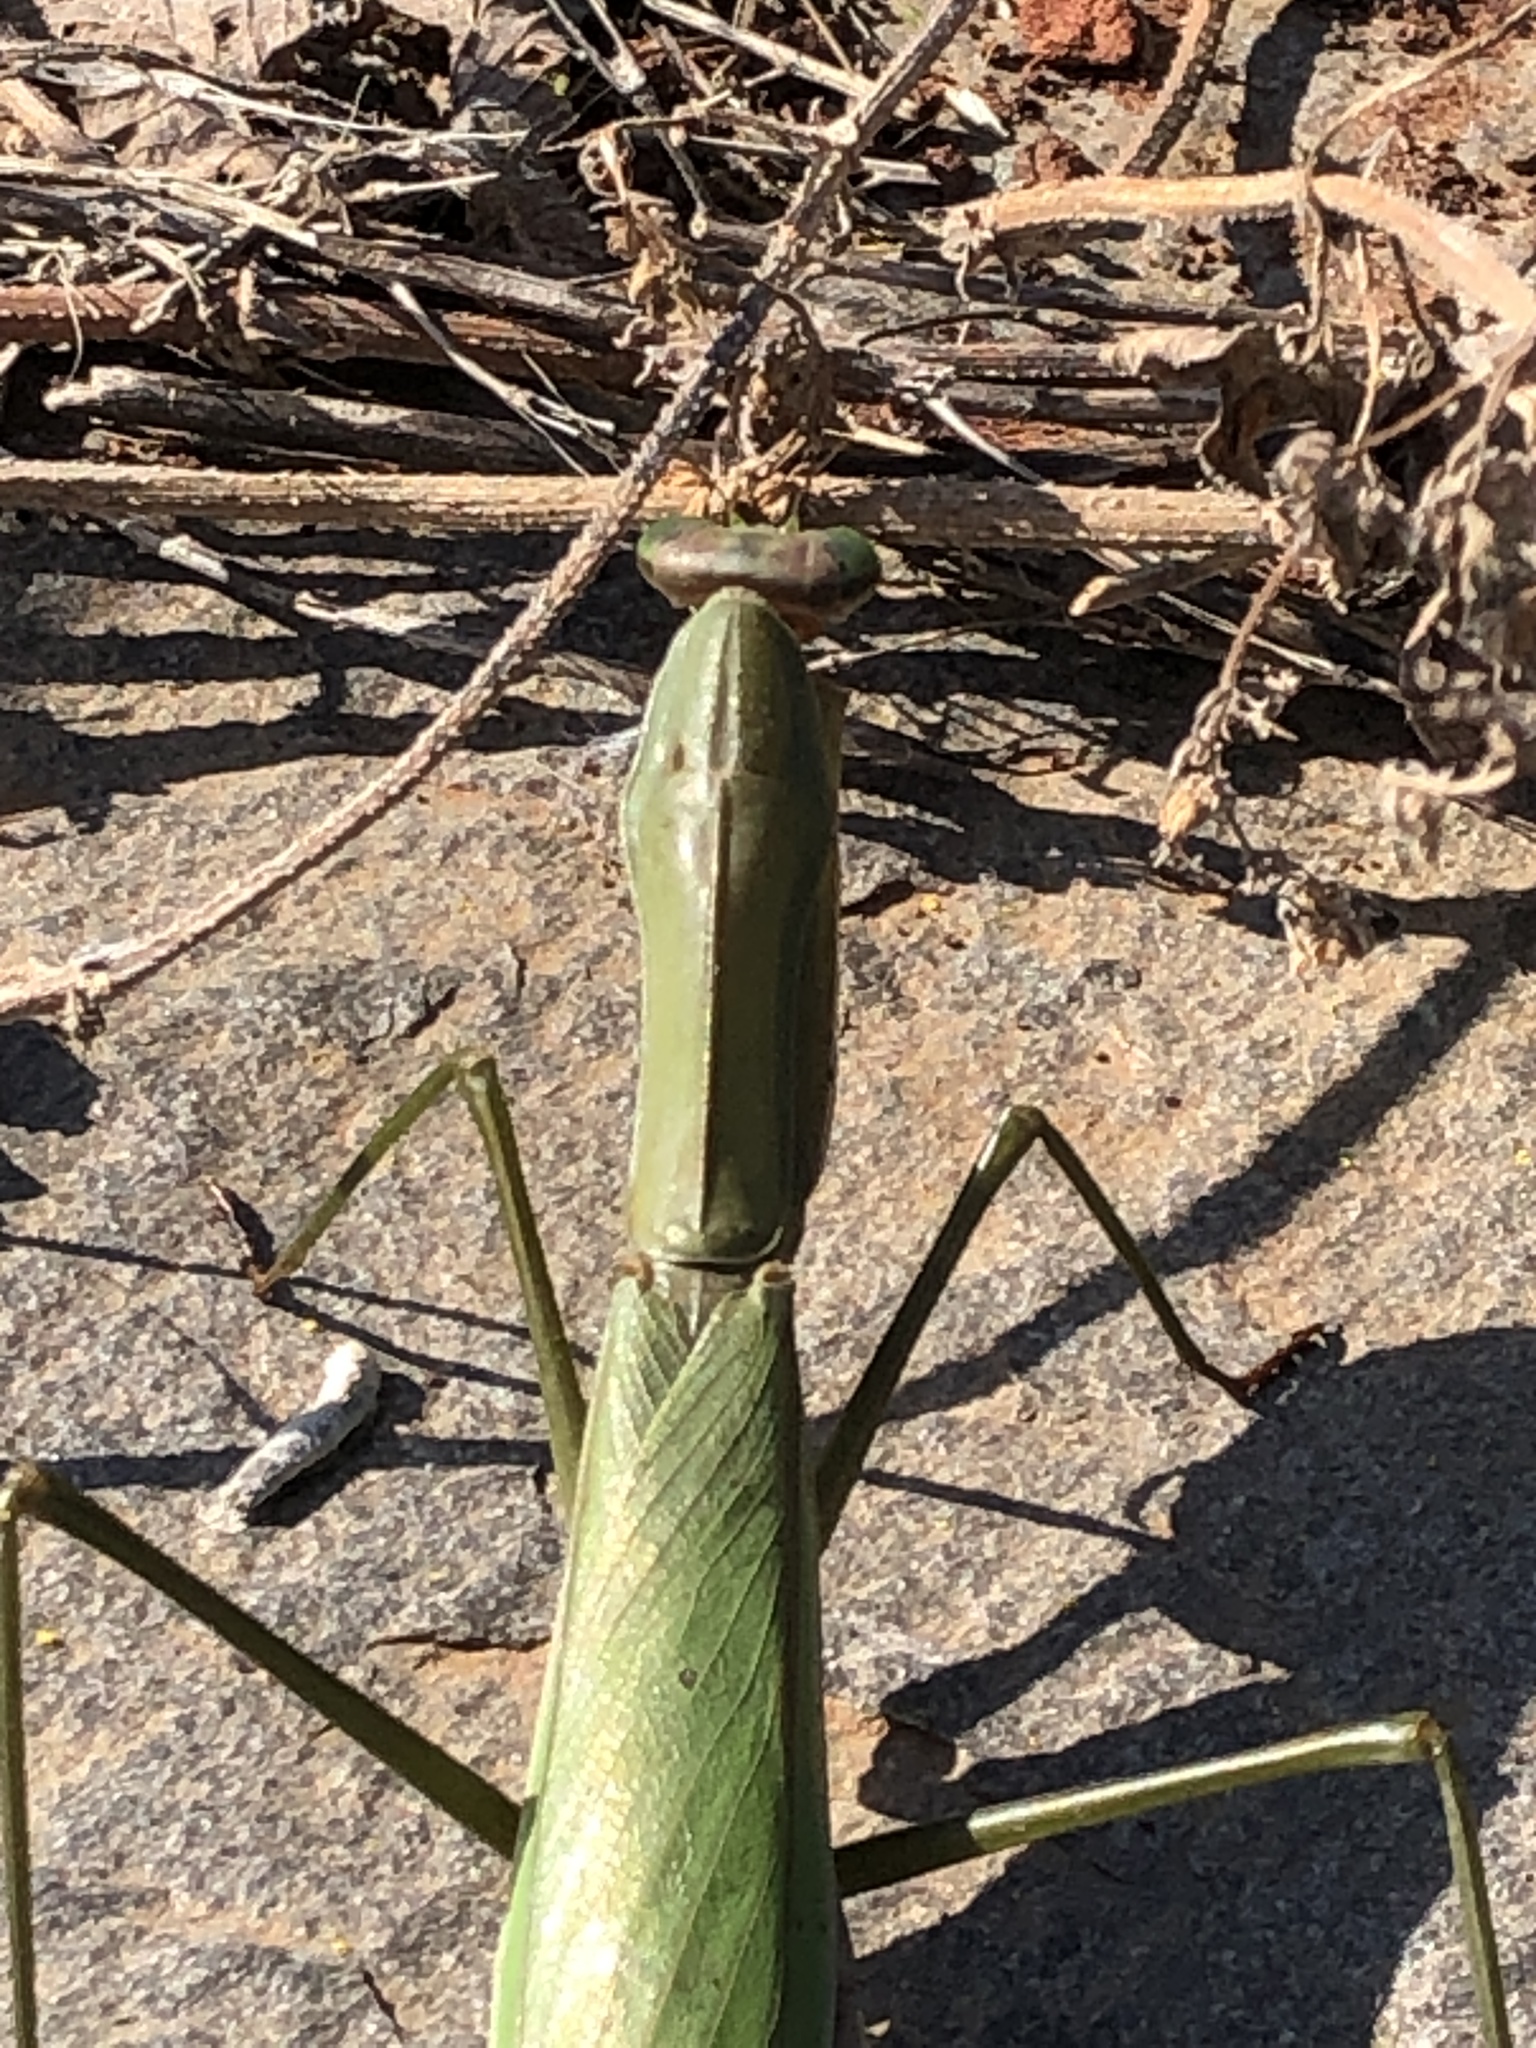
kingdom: Animalia
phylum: Arthropoda
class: Insecta
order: Mantodea
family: Mantidae
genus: Tenodera
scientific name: Tenodera sinensis
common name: Chinese mantis
